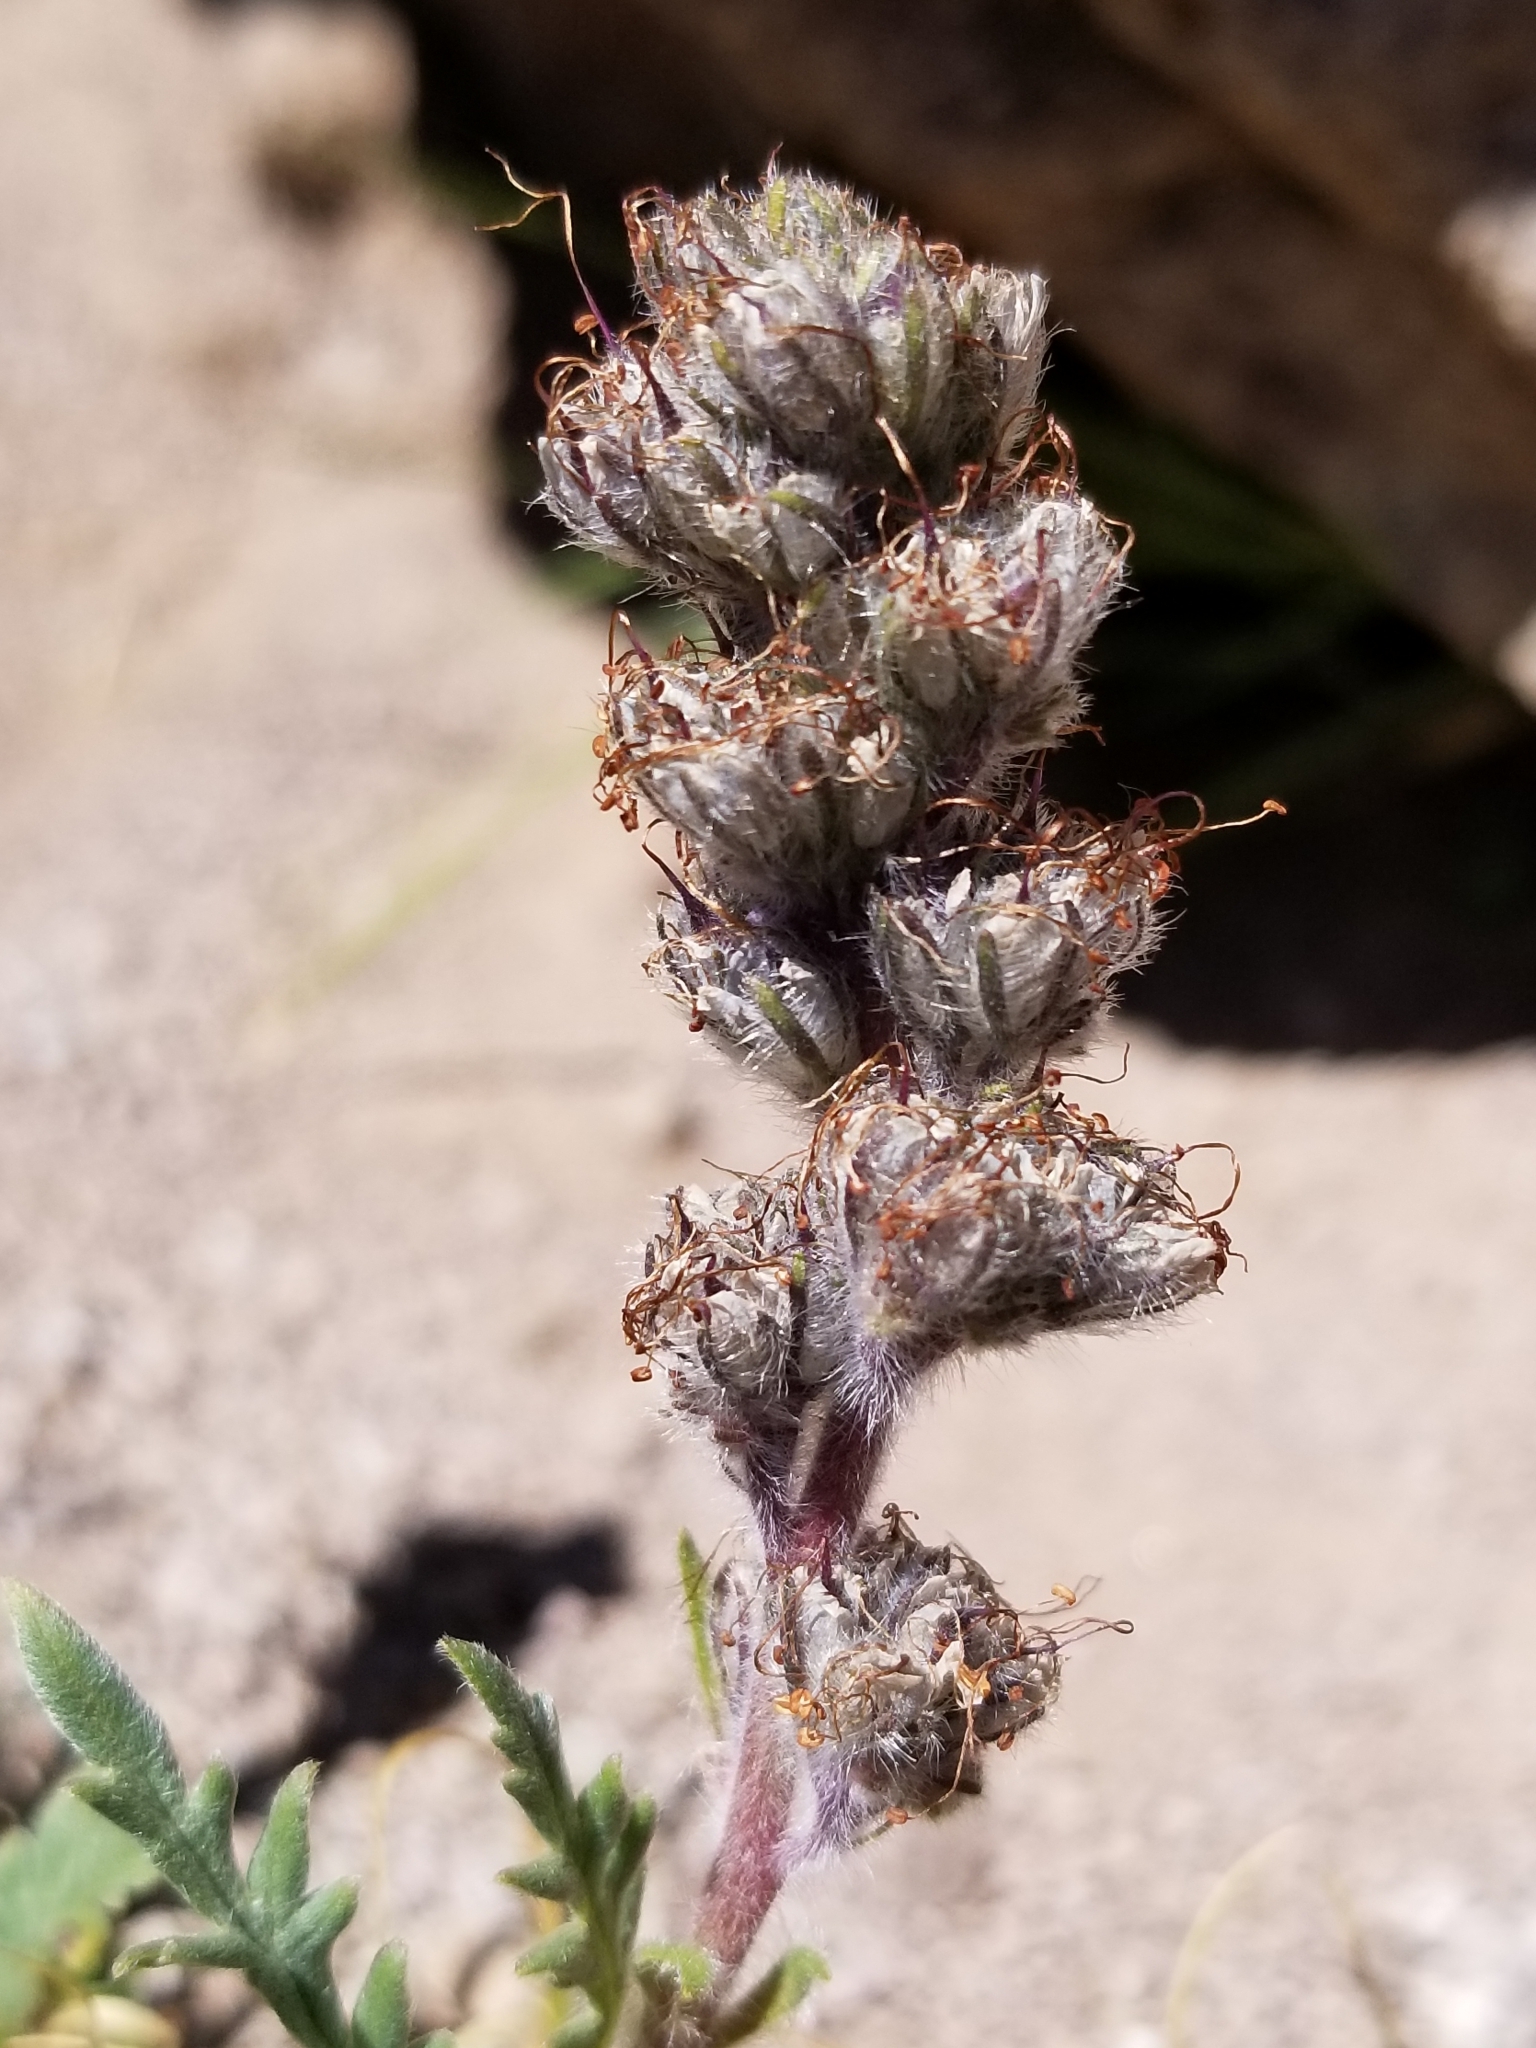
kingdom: Plantae
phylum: Tracheophyta
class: Magnoliopsida
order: Boraginales
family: Hydrophyllaceae
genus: Phacelia
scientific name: Phacelia sericea
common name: Silky phacelia
